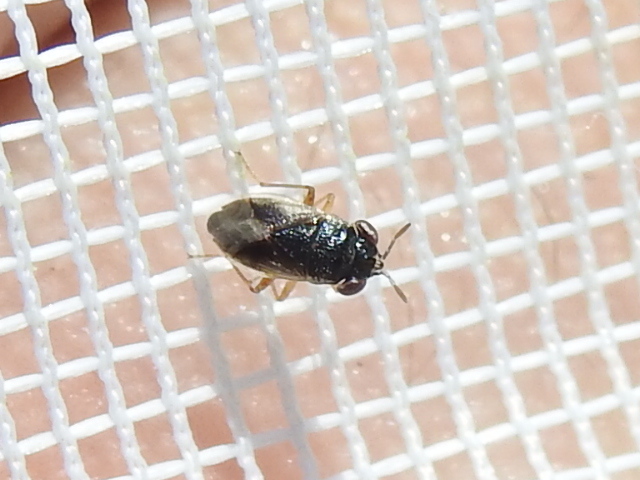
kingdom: Animalia
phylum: Arthropoda
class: Insecta
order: Hemiptera
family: Geocoridae
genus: Geocoris
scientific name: Geocoris uliginosus
